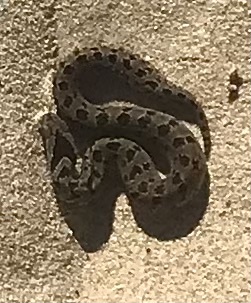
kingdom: Animalia
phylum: Chordata
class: Squamata
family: Viperidae
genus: Causus
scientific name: Causus rhombeatus
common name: Common night adder
